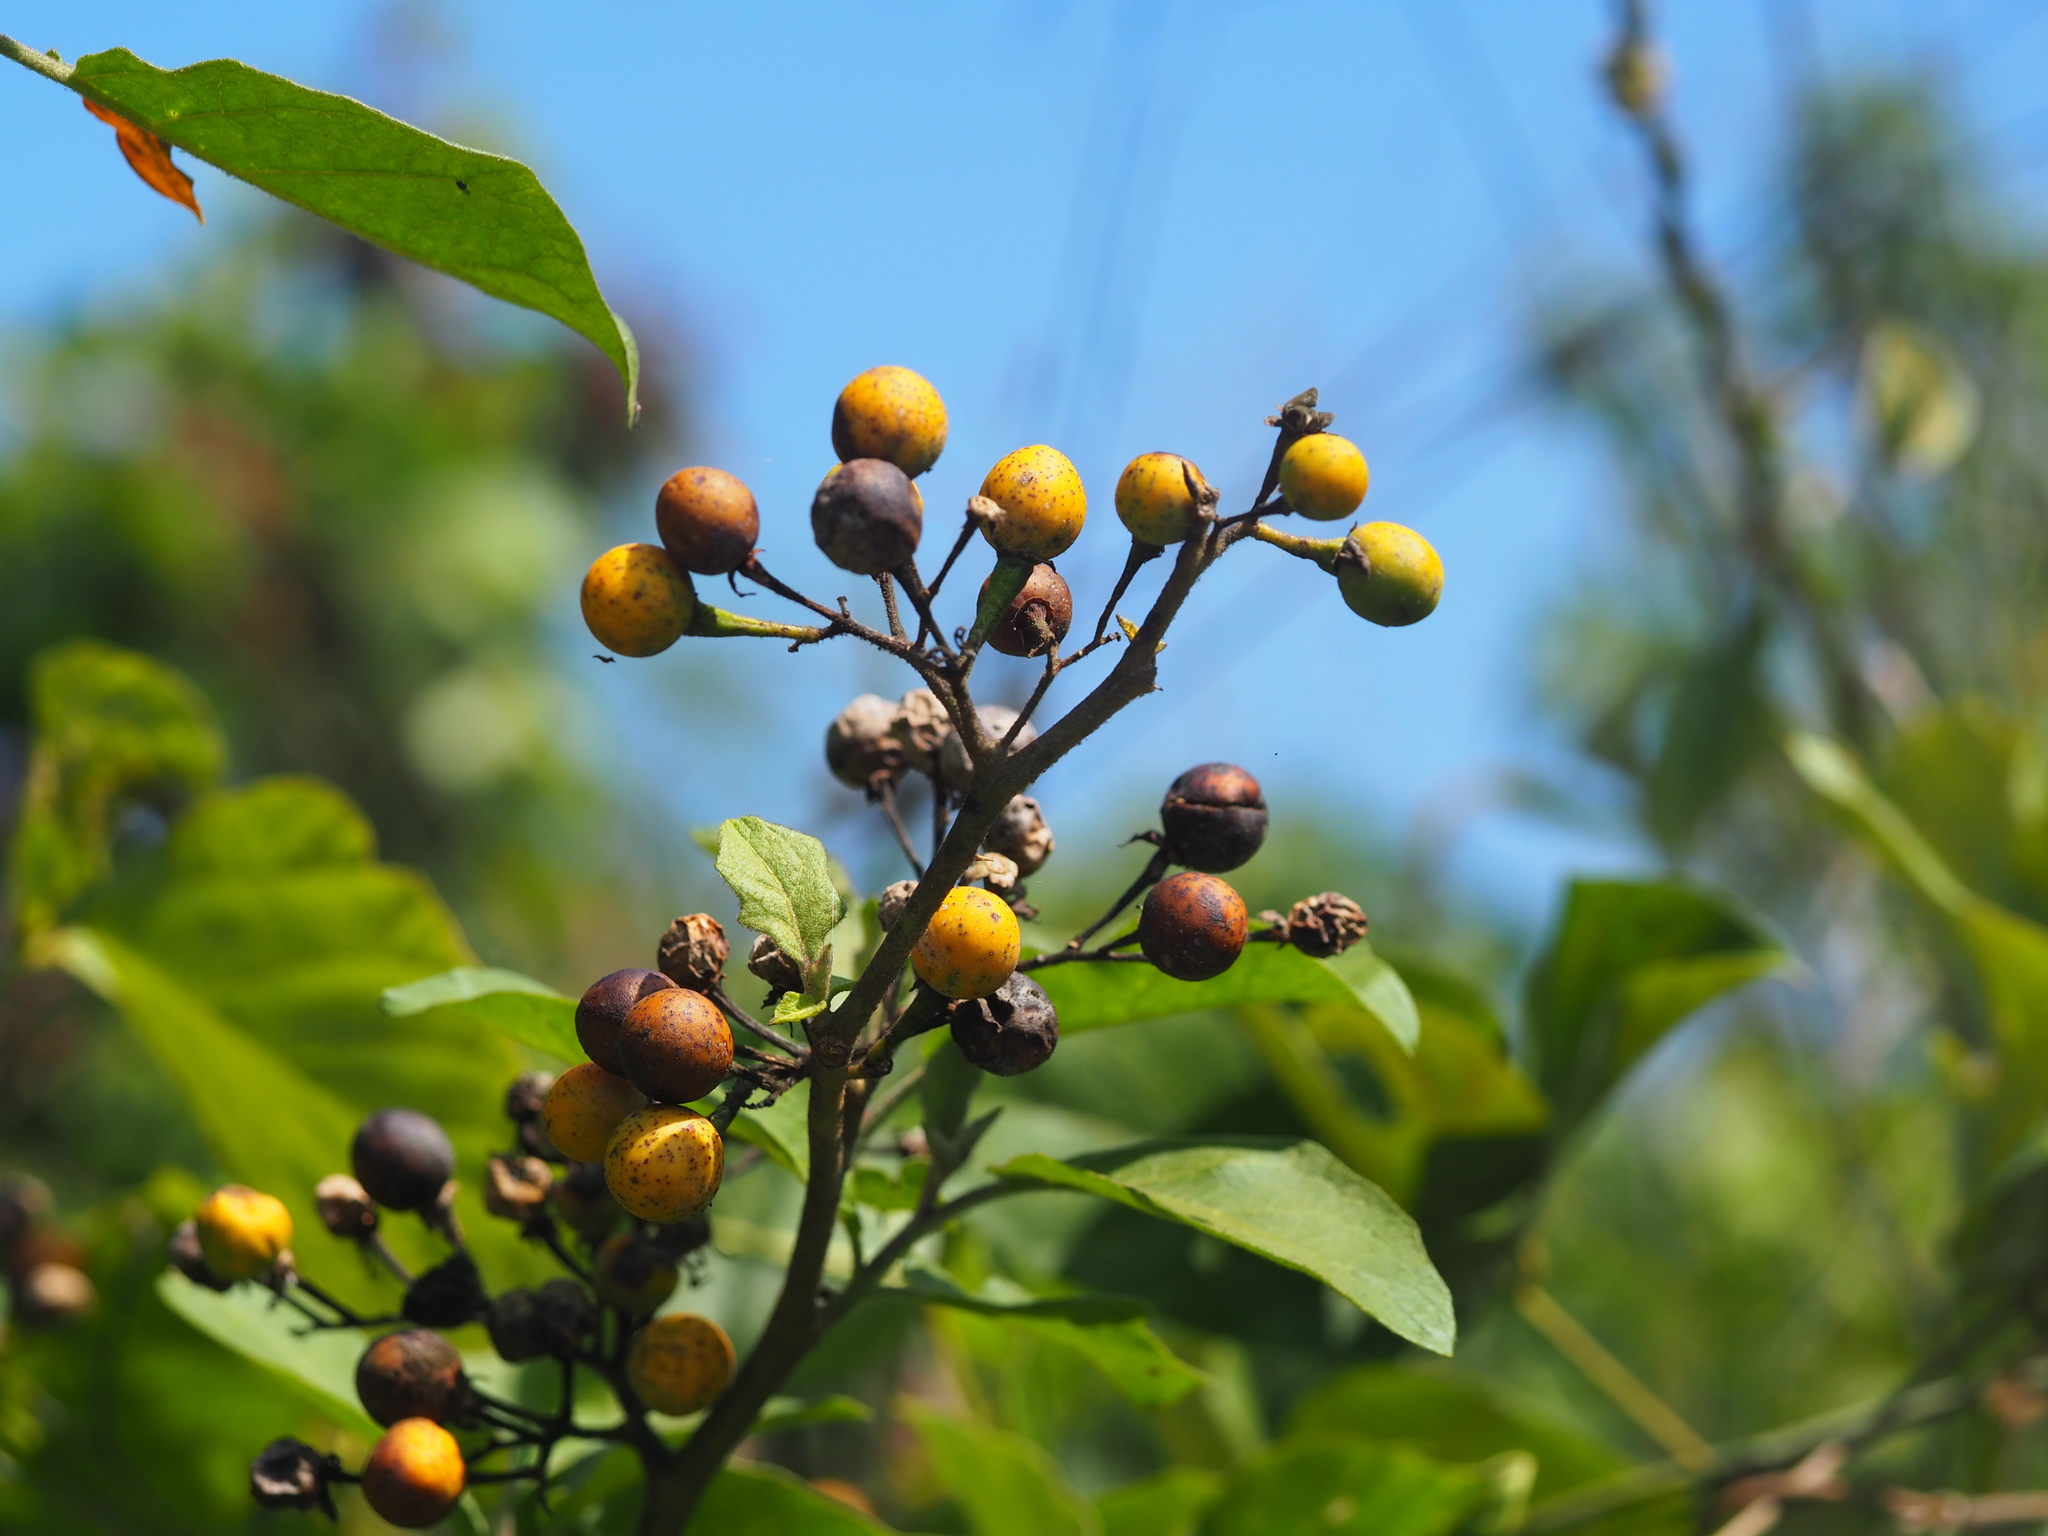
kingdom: Plantae
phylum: Tracheophyta
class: Magnoliopsida
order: Solanales
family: Solanaceae
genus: Solanum
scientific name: Solanum torvum
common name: Turkey berry
